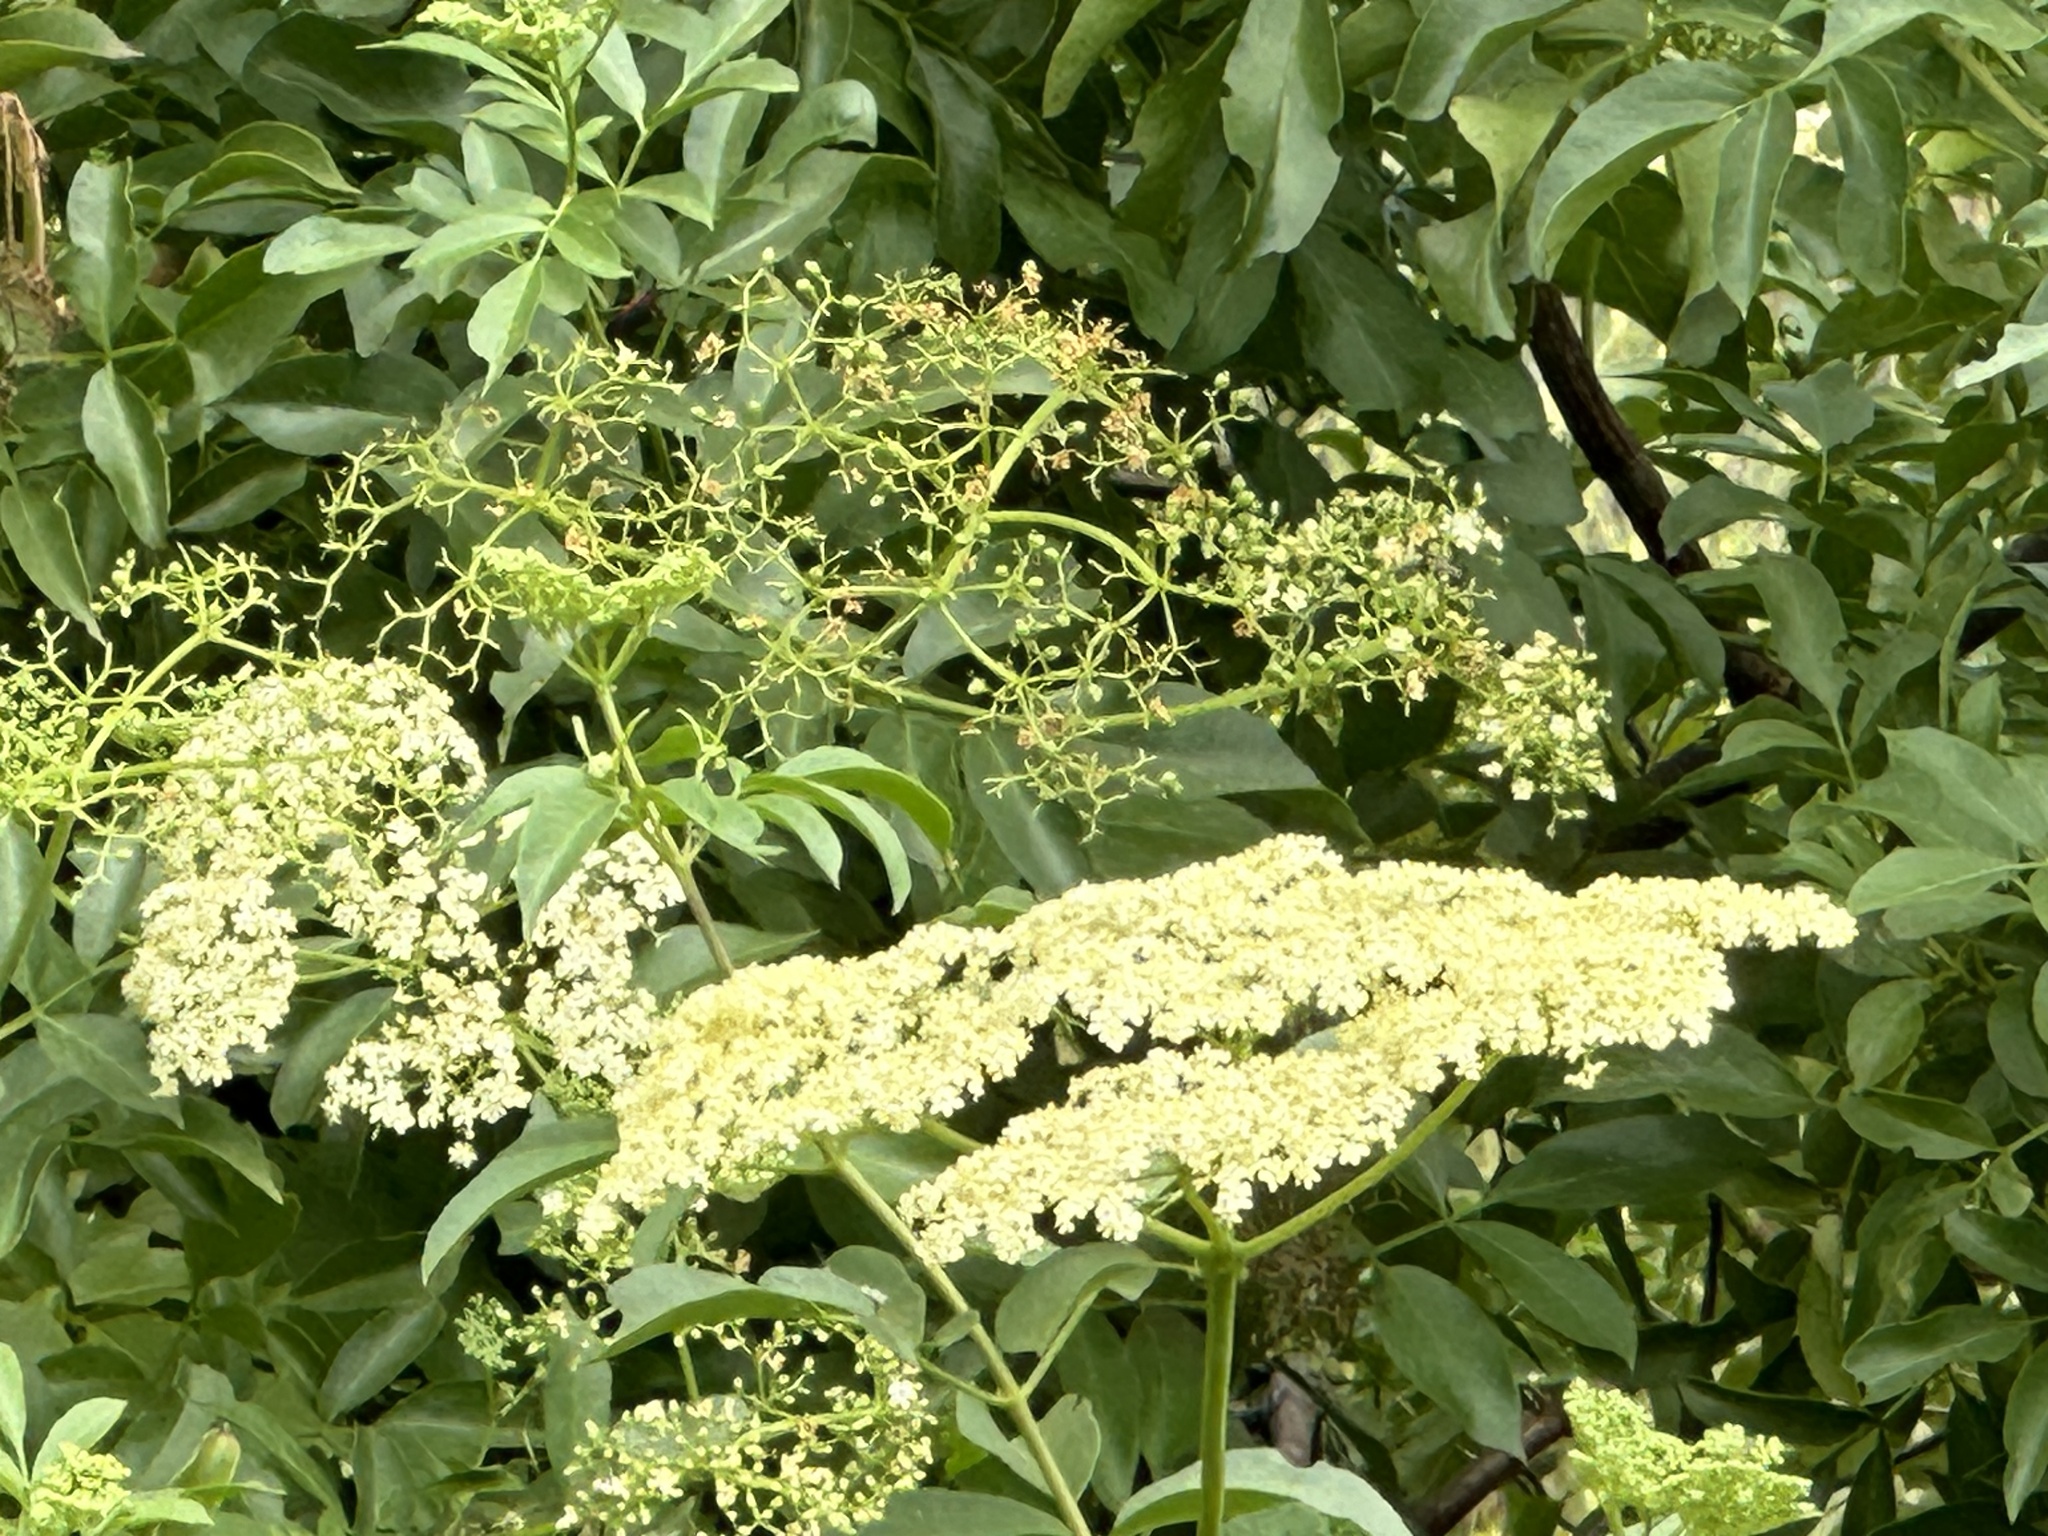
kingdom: Plantae
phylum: Tracheophyta
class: Magnoliopsida
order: Dipsacales
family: Viburnaceae
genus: Sambucus
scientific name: Sambucus cerulea
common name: Blue elder
